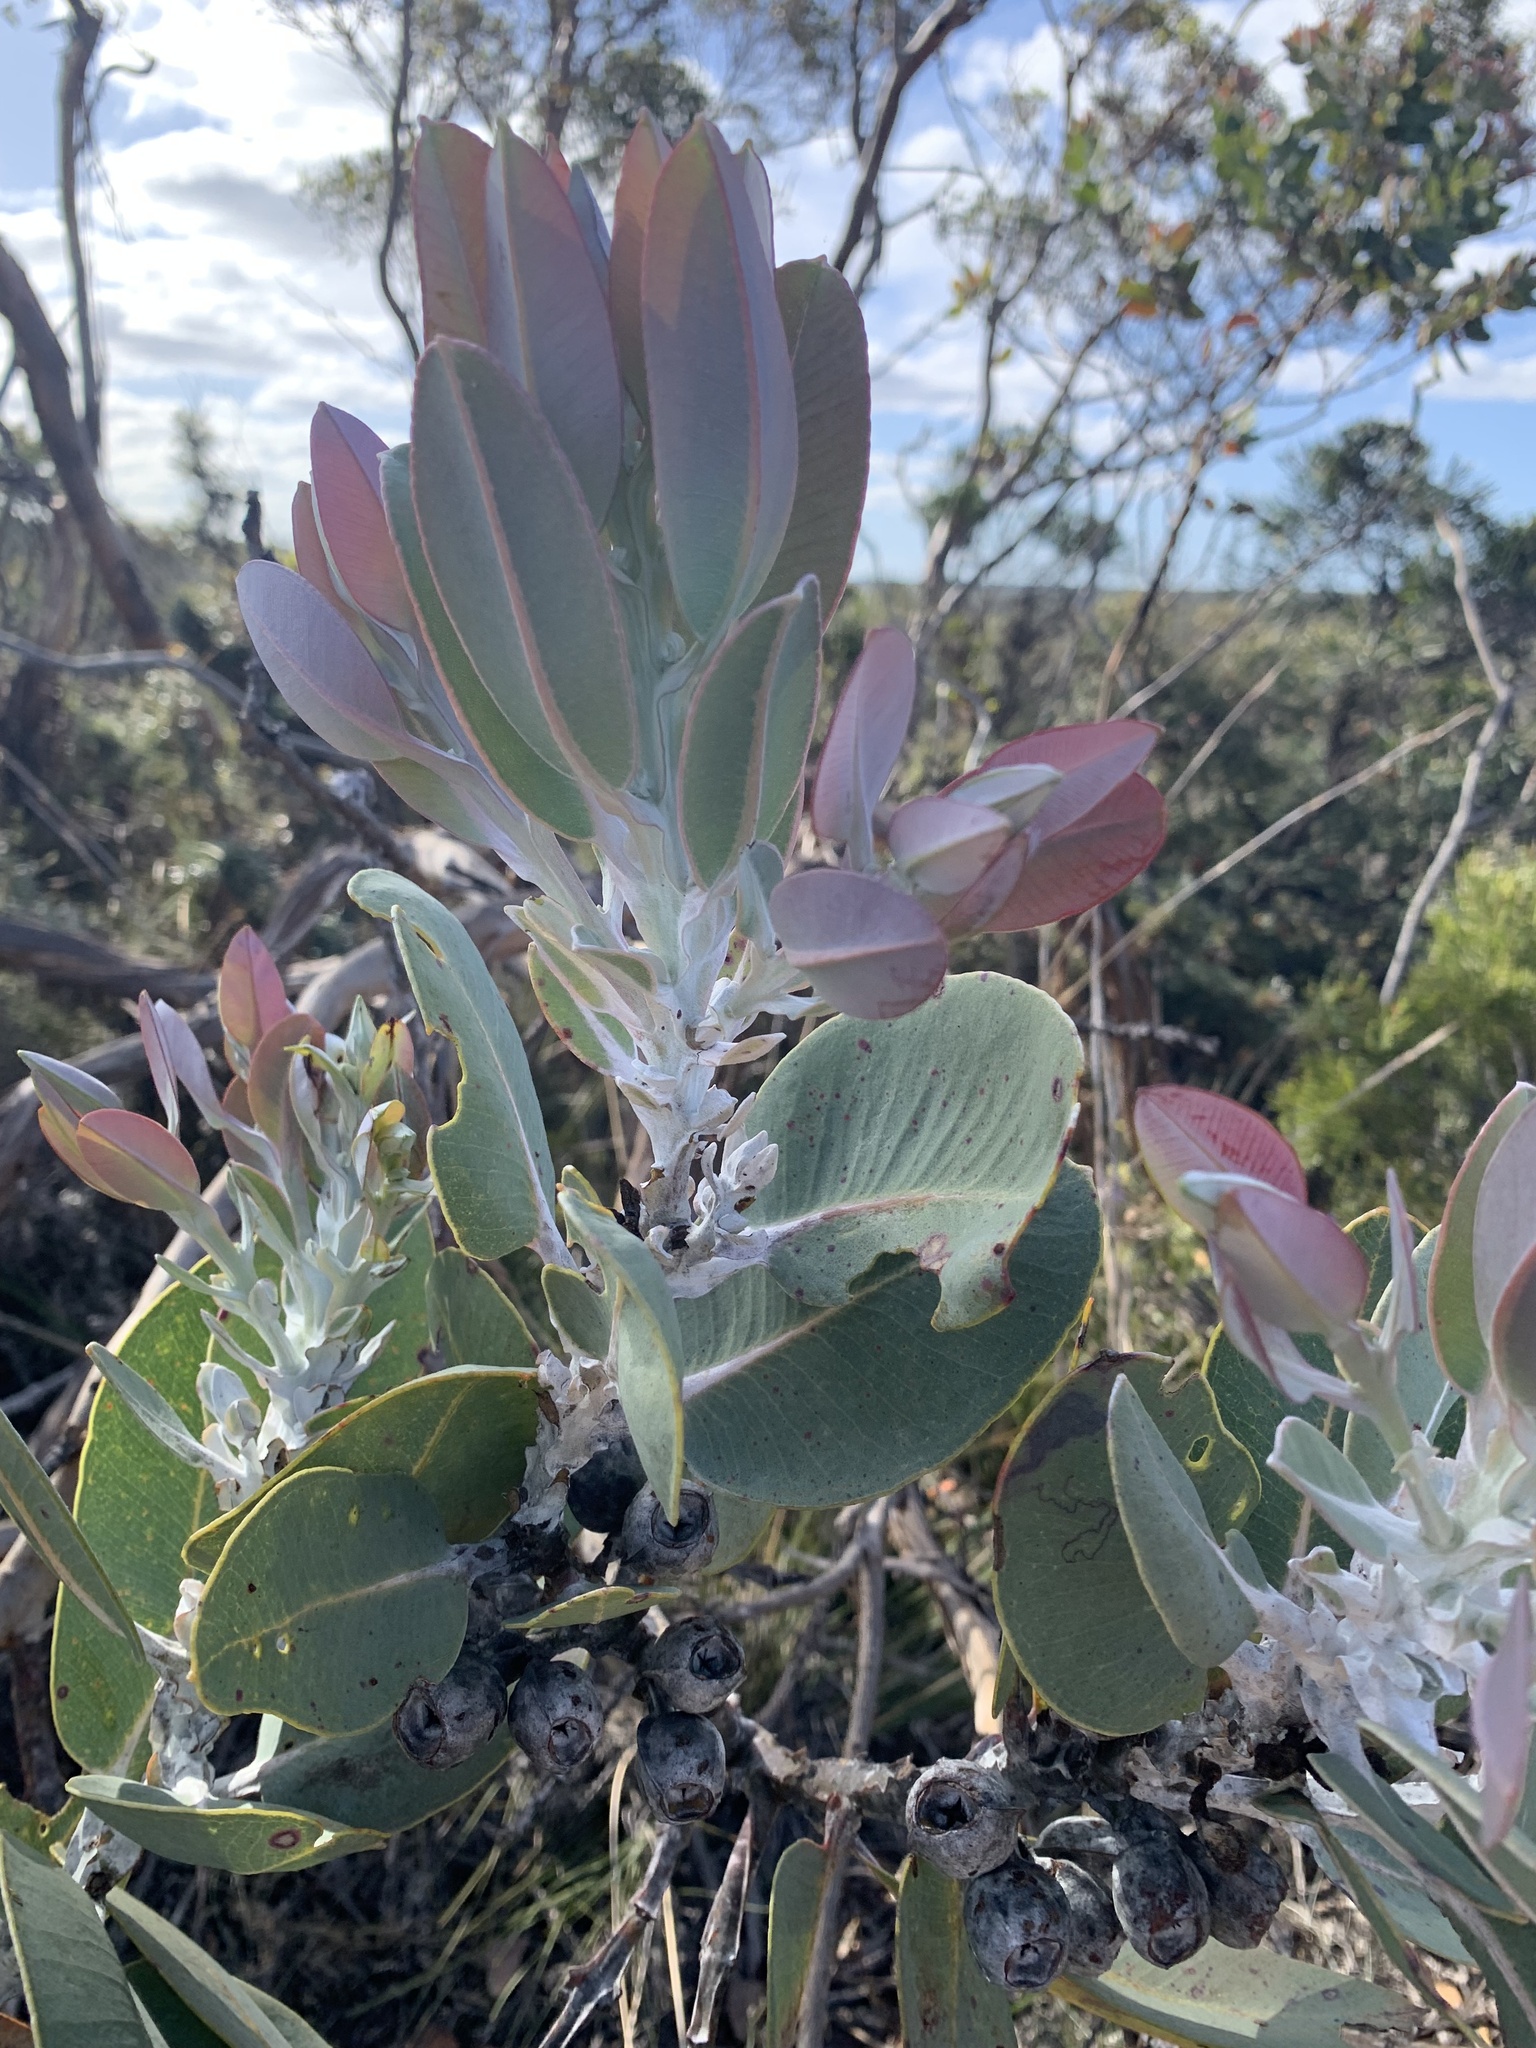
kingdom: Plantae
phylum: Tracheophyta
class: Magnoliopsida
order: Myrtales
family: Myrtaceae
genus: Eucalyptus
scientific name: Eucalyptus tetragona
